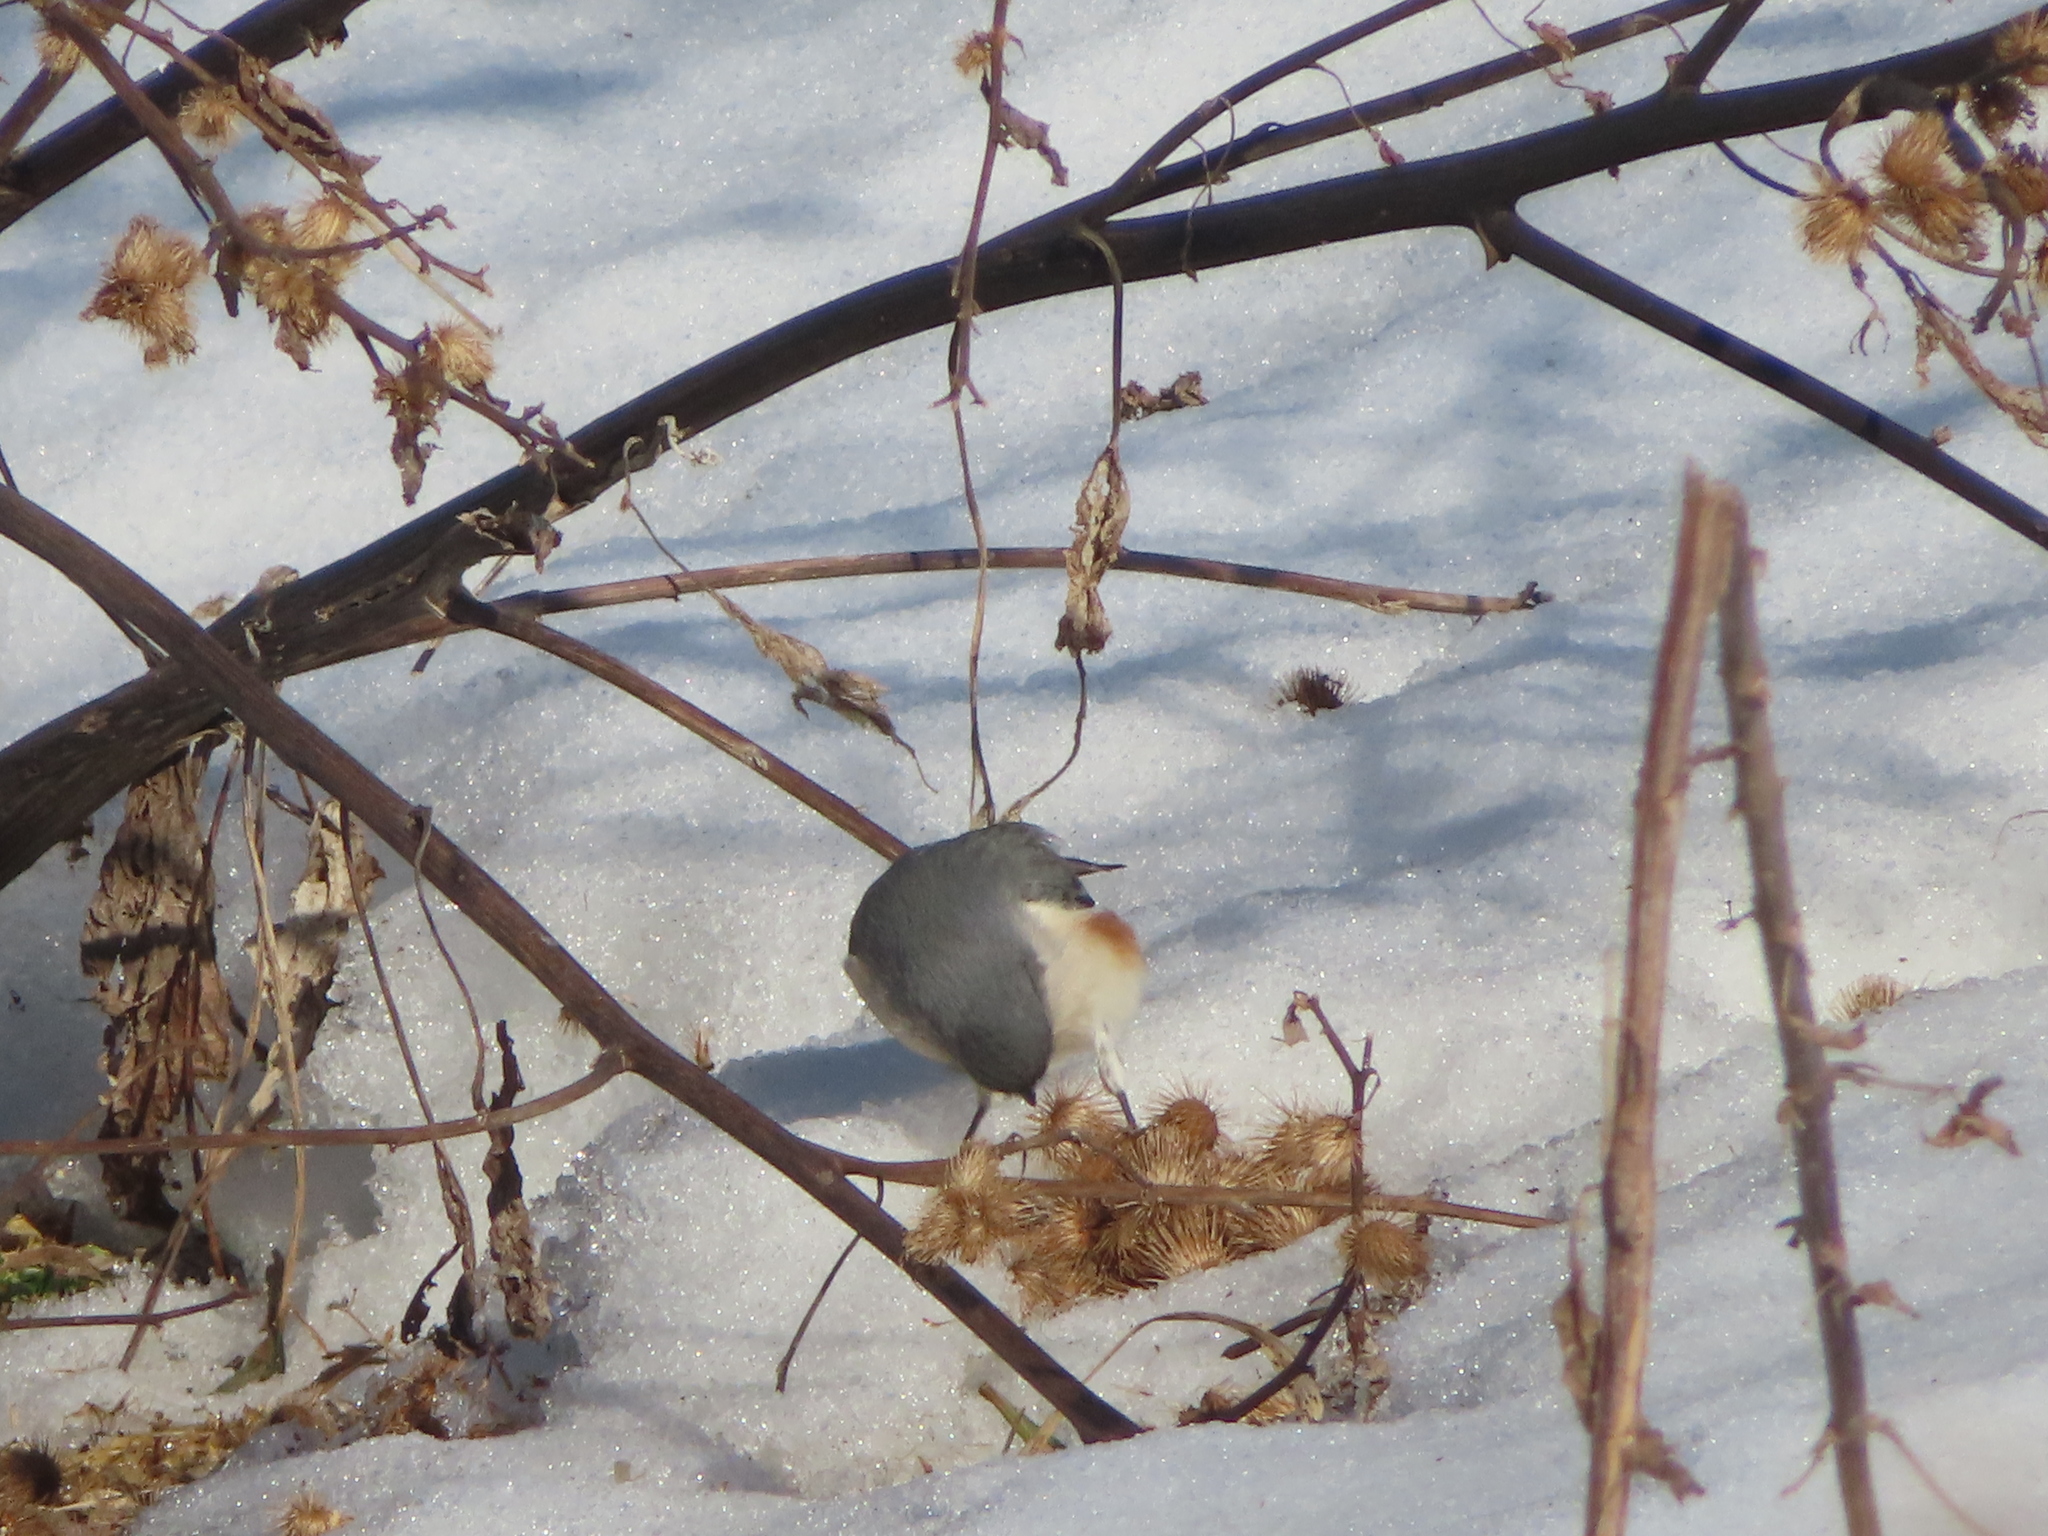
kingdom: Plantae
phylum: Tracheophyta
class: Magnoliopsida
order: Asterales
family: Asteraceae
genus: Arctium
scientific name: Arctium minus
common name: Lesser burdock
